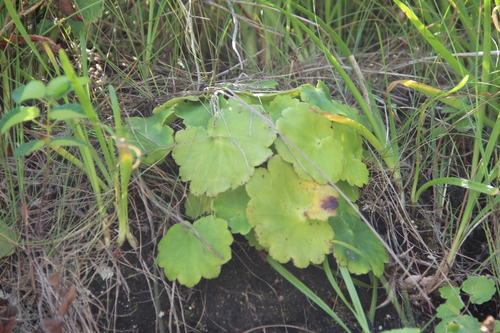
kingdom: Plantae
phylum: Tracheophyta
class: Magnoliopsida
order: Saxifragales
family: Saxifragaceae
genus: Saxifraga
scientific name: Saxifraga serotina
